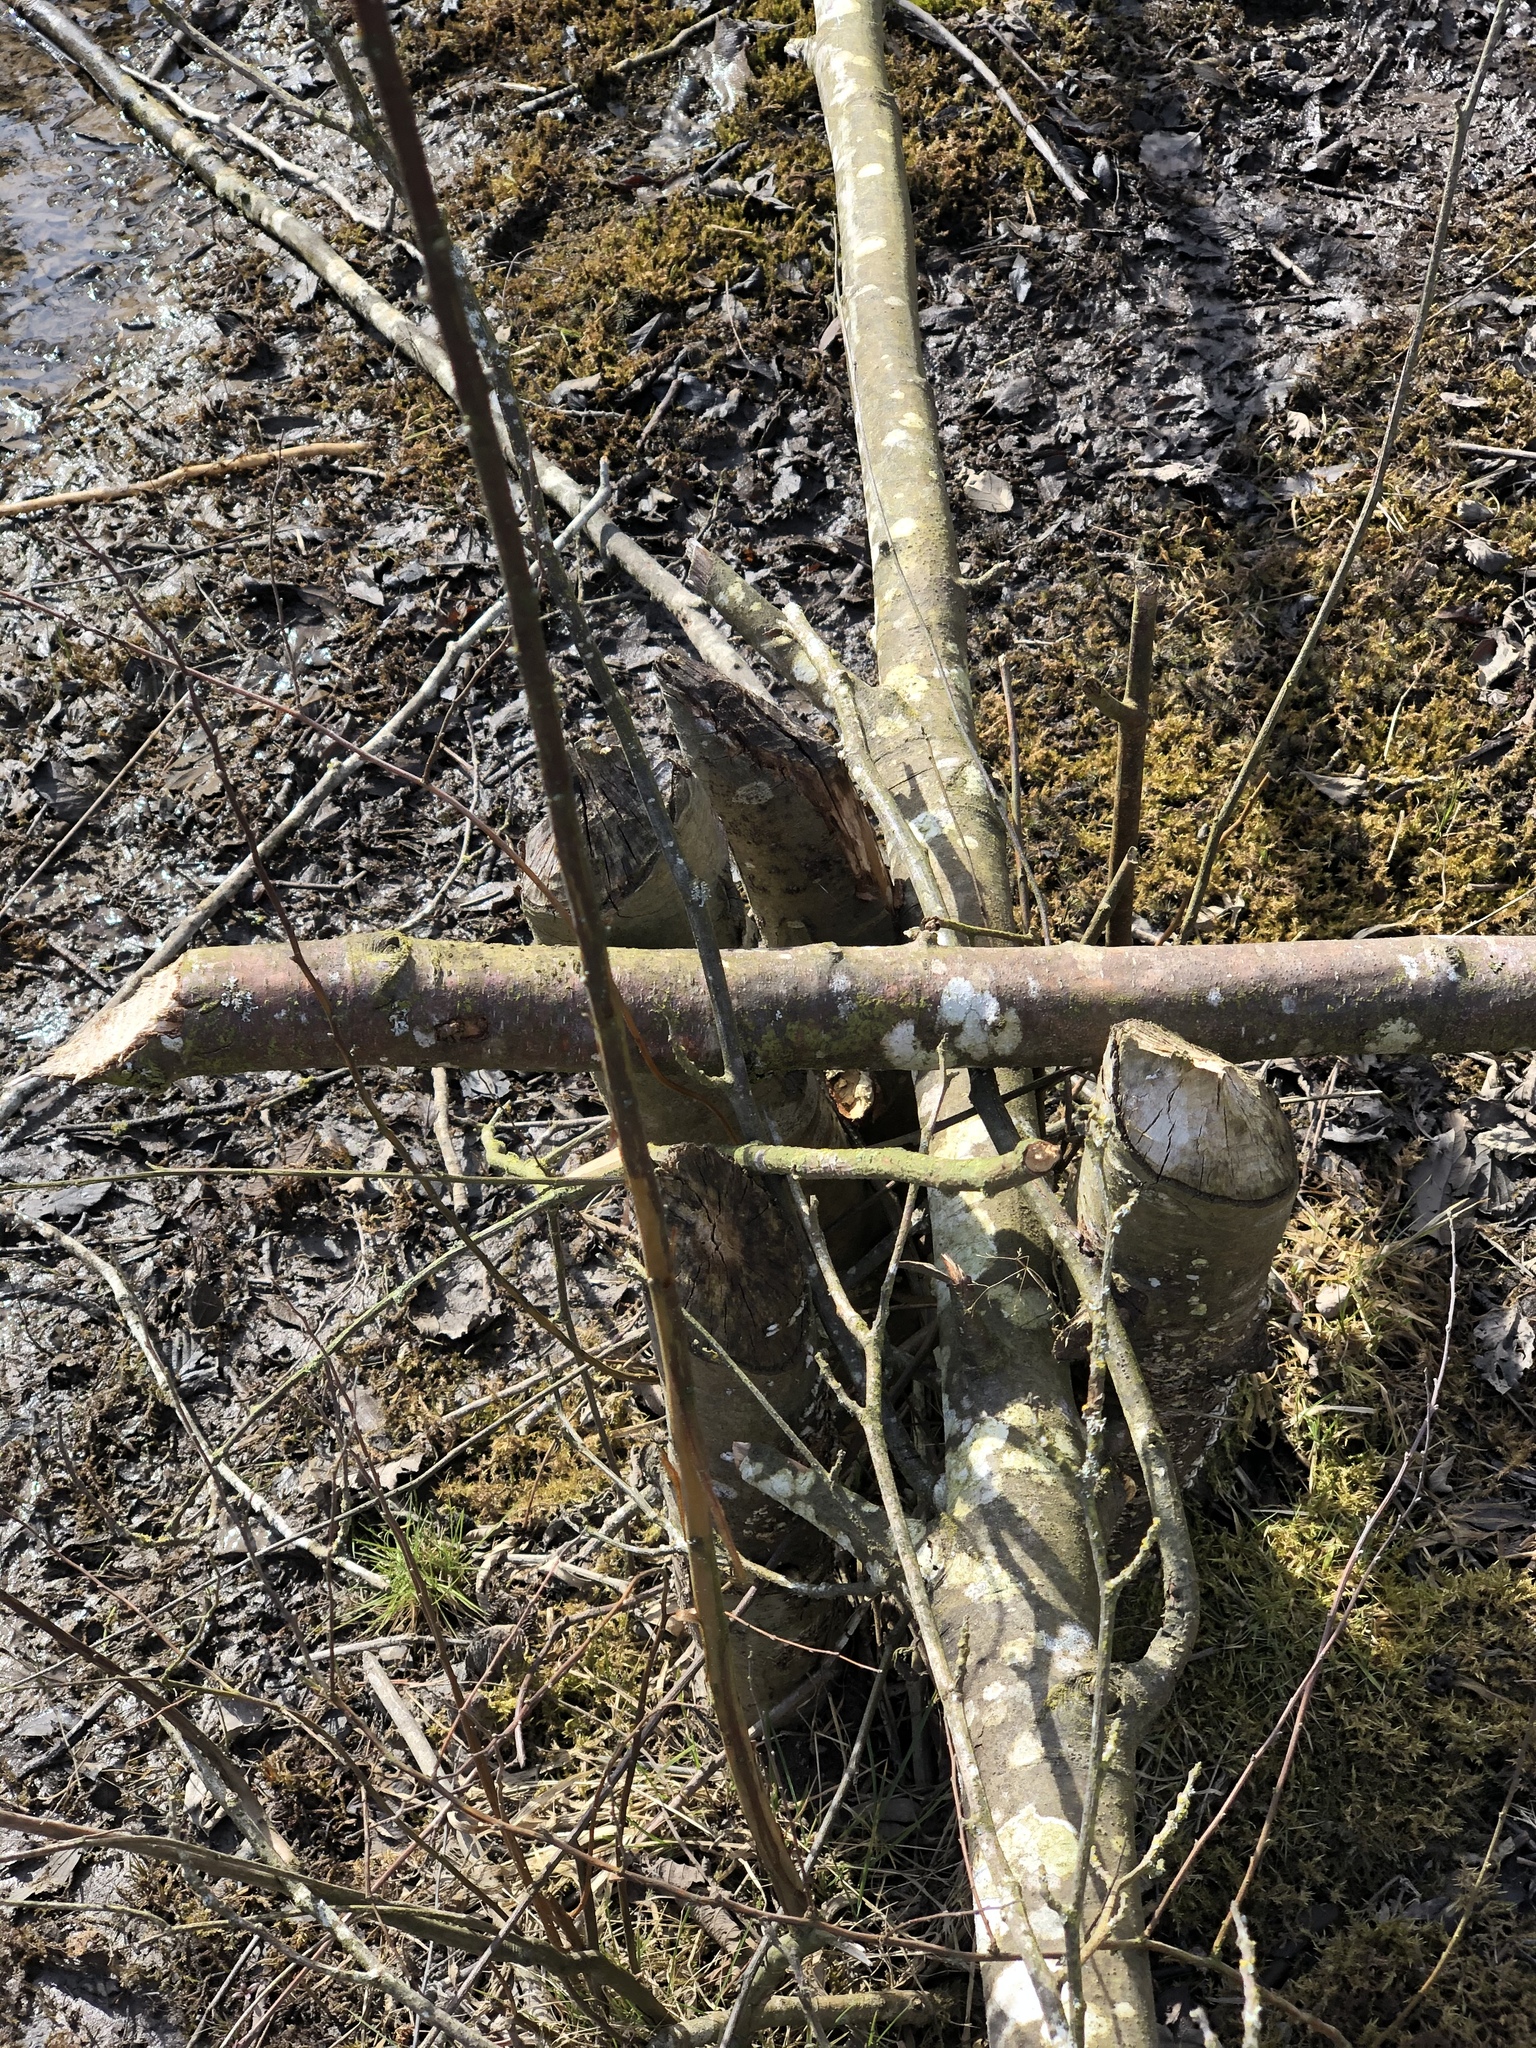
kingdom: Animalia
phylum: Chordata
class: Mammalia
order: Rodentia
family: Castoridae
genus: Castor
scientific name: Castor canadensis
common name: American beaver
